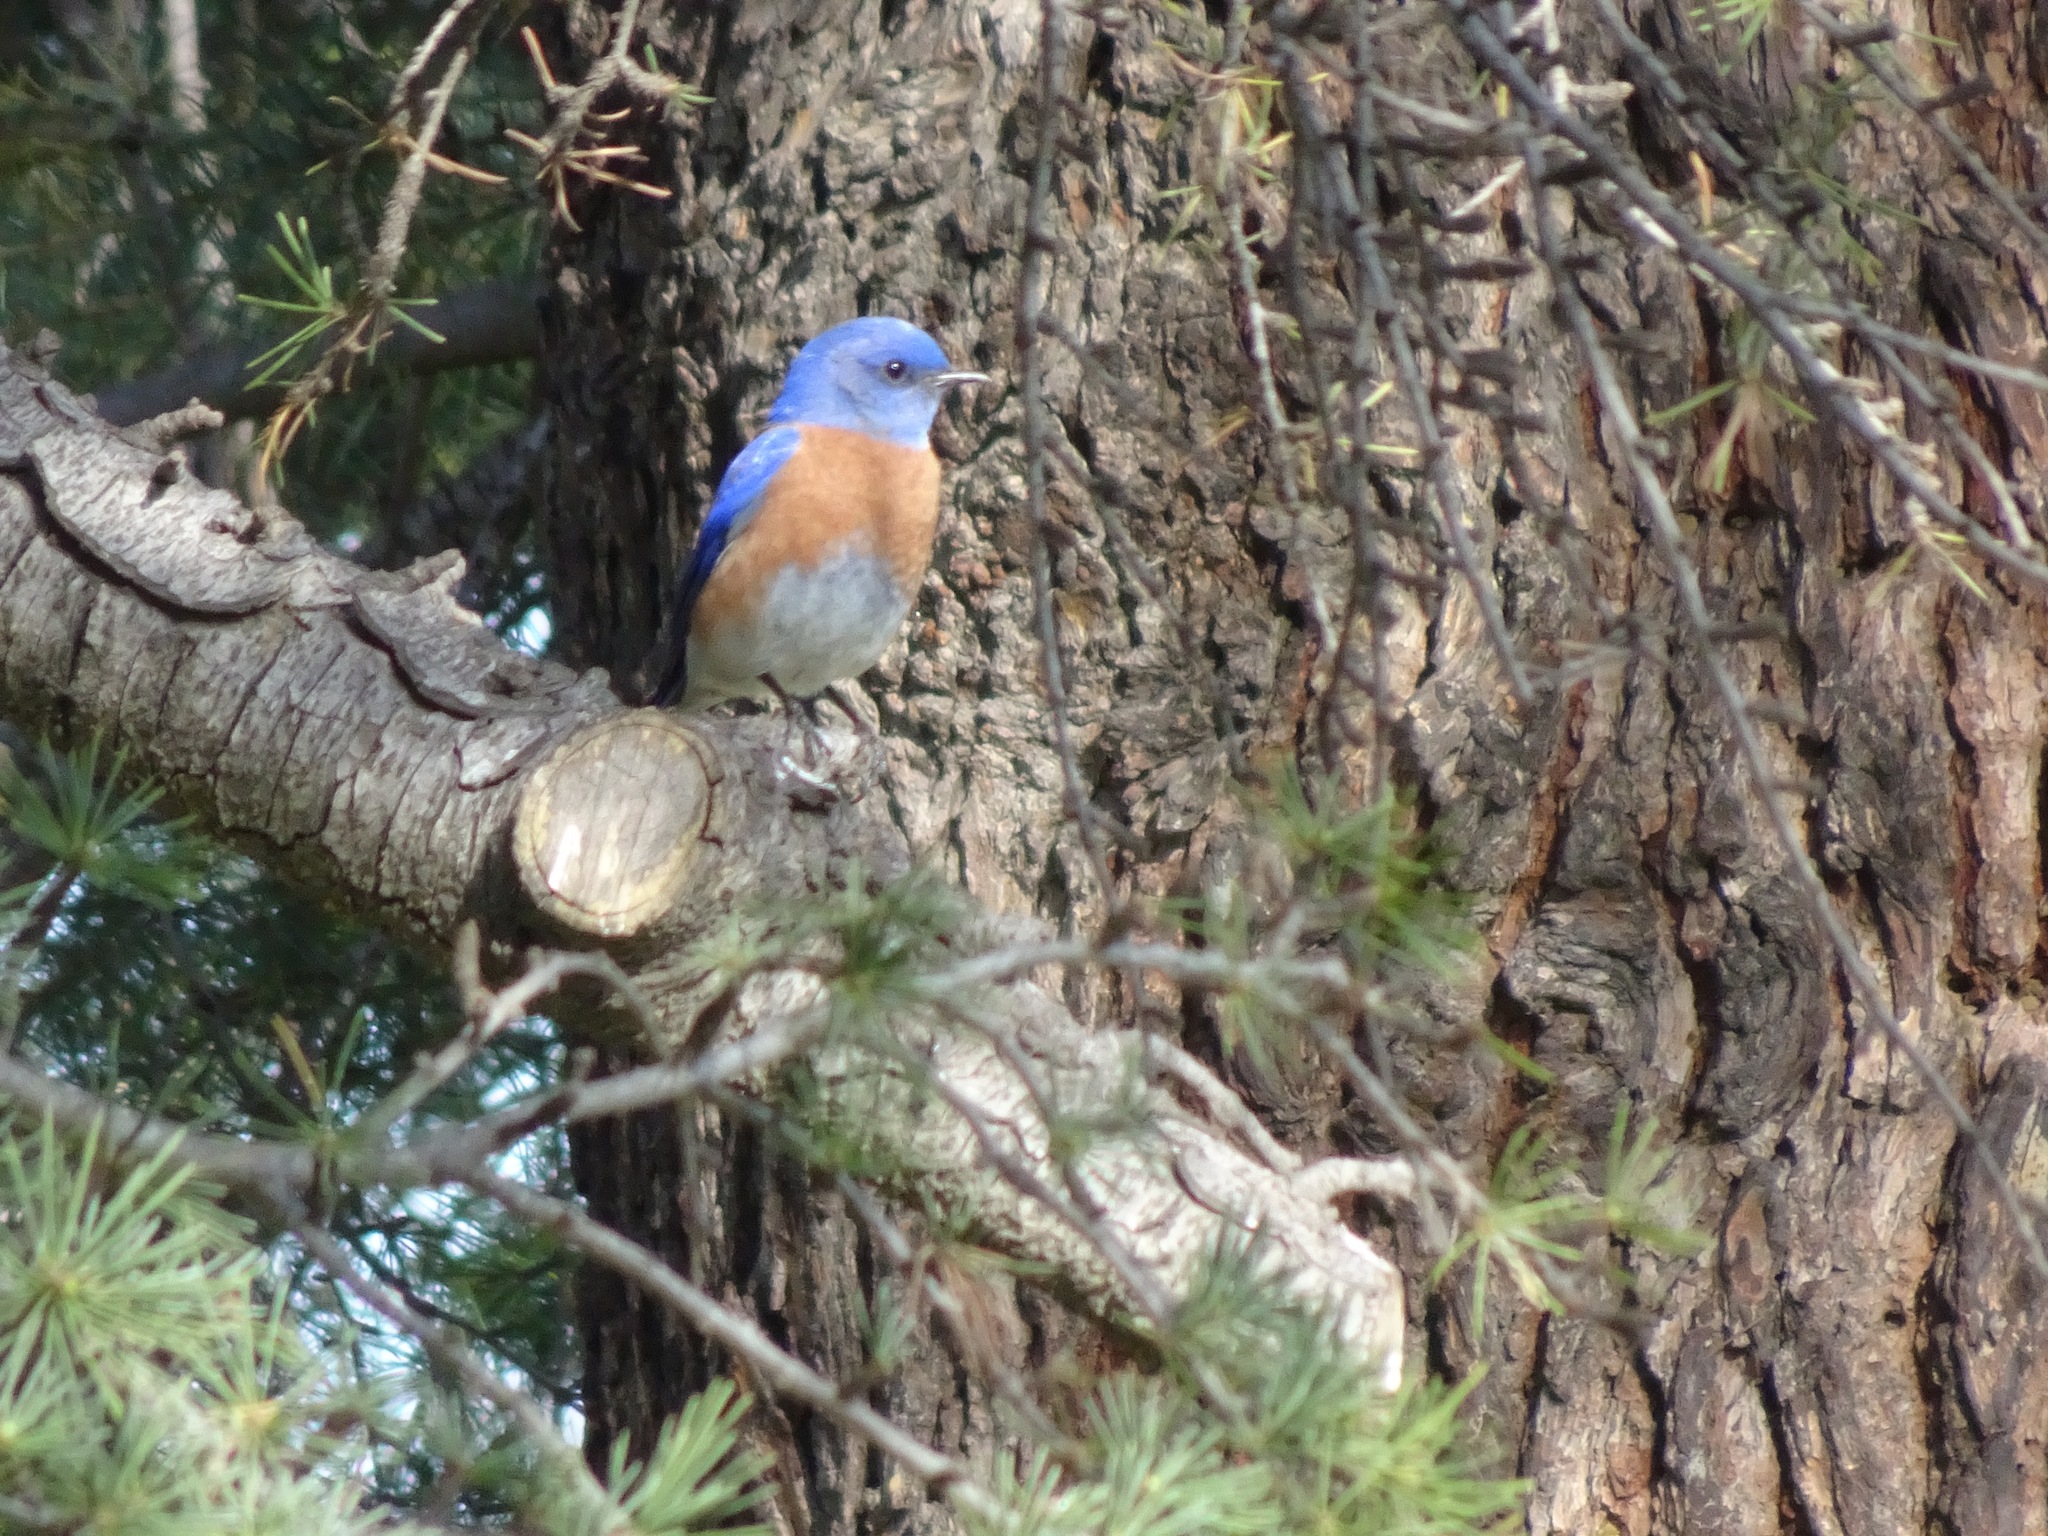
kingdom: Animalia
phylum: Chordata
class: Aves
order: Passeriformes
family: Turdidae
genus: Sialia
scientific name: Sialia mexicana
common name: Western bluebird
